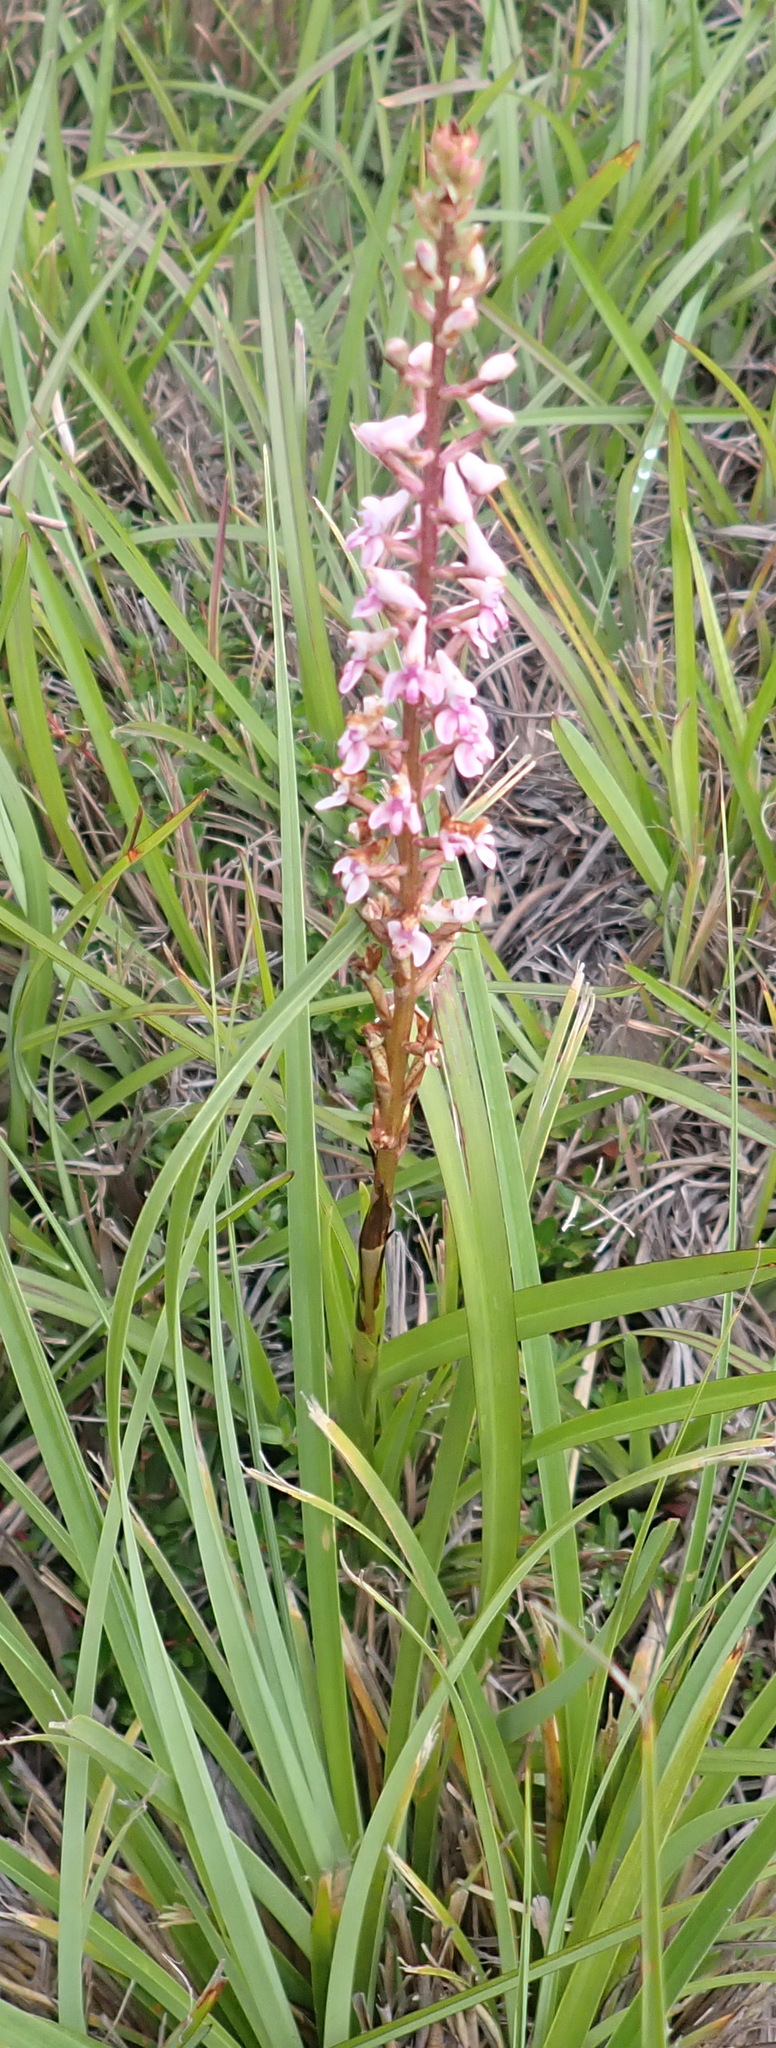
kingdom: Plantae
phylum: Tracheophyta
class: Liliopsida
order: Asparagales
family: Orchidaceae
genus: Disa
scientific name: Disa aconitoides
